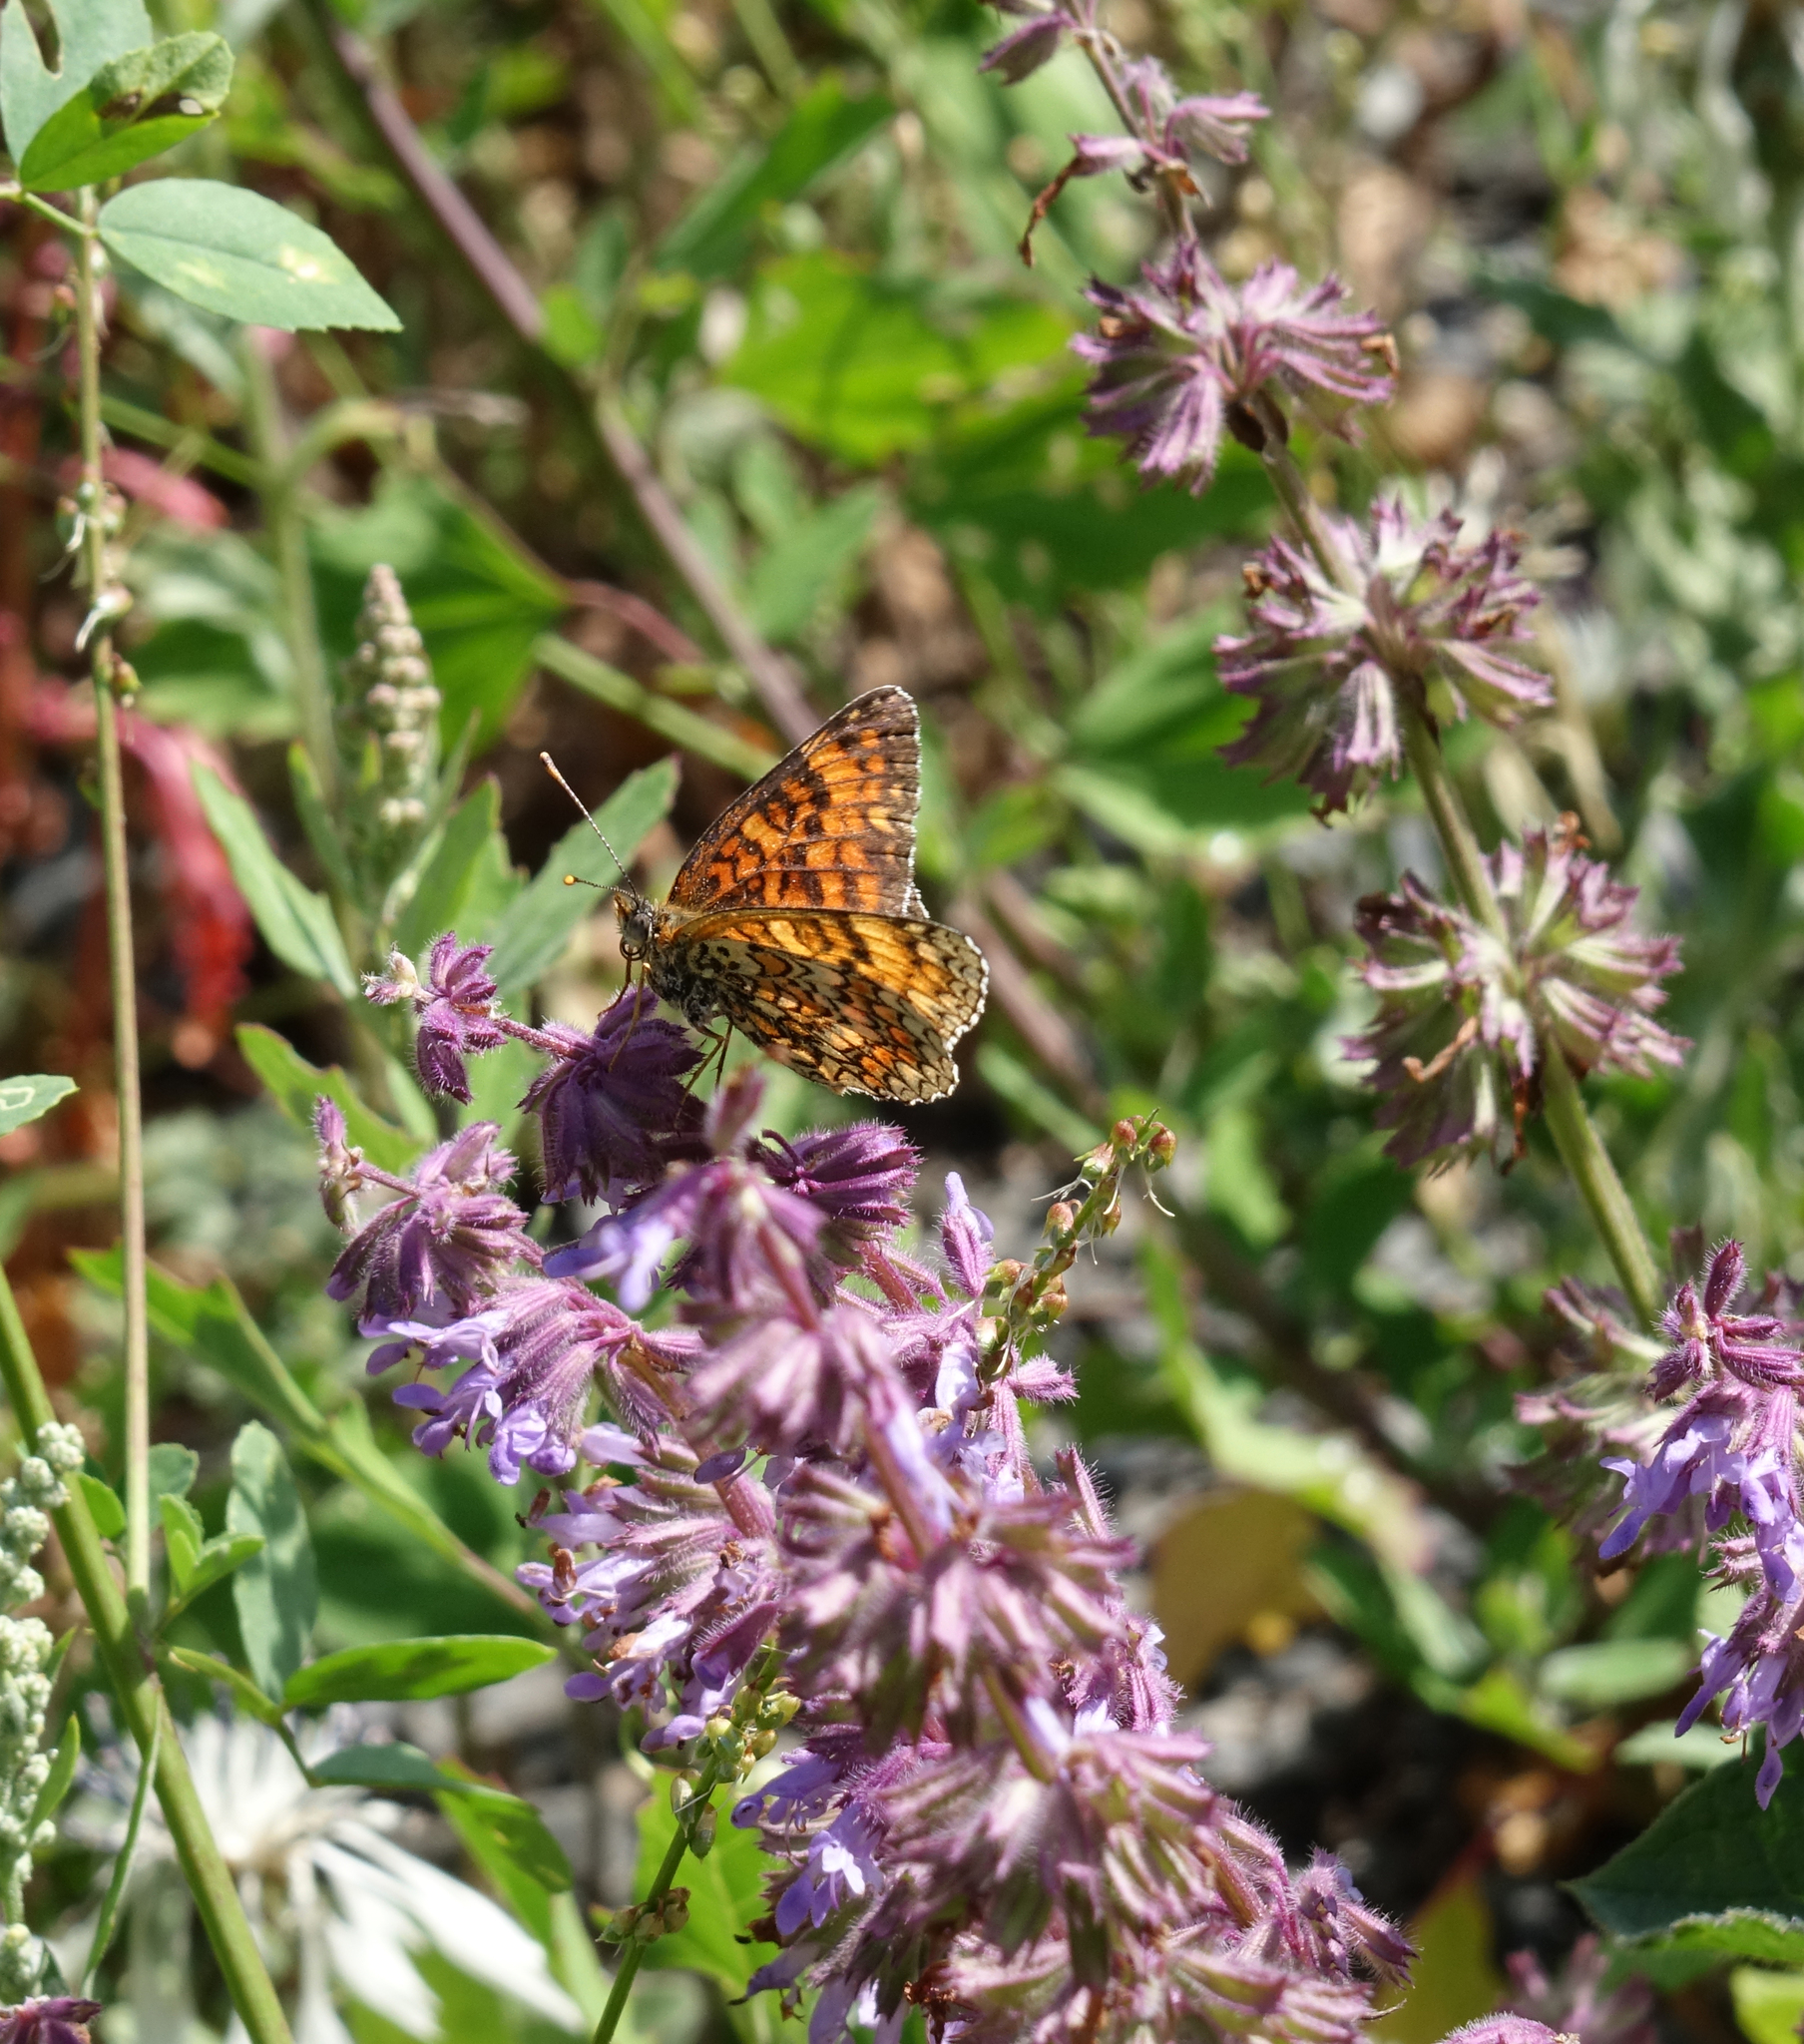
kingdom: Plantae
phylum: Tracheophyta
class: Magnoliopsida
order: Lamiales
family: Lamiaceae
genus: Salvia
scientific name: Salvia verticillata
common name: Whorled clary
